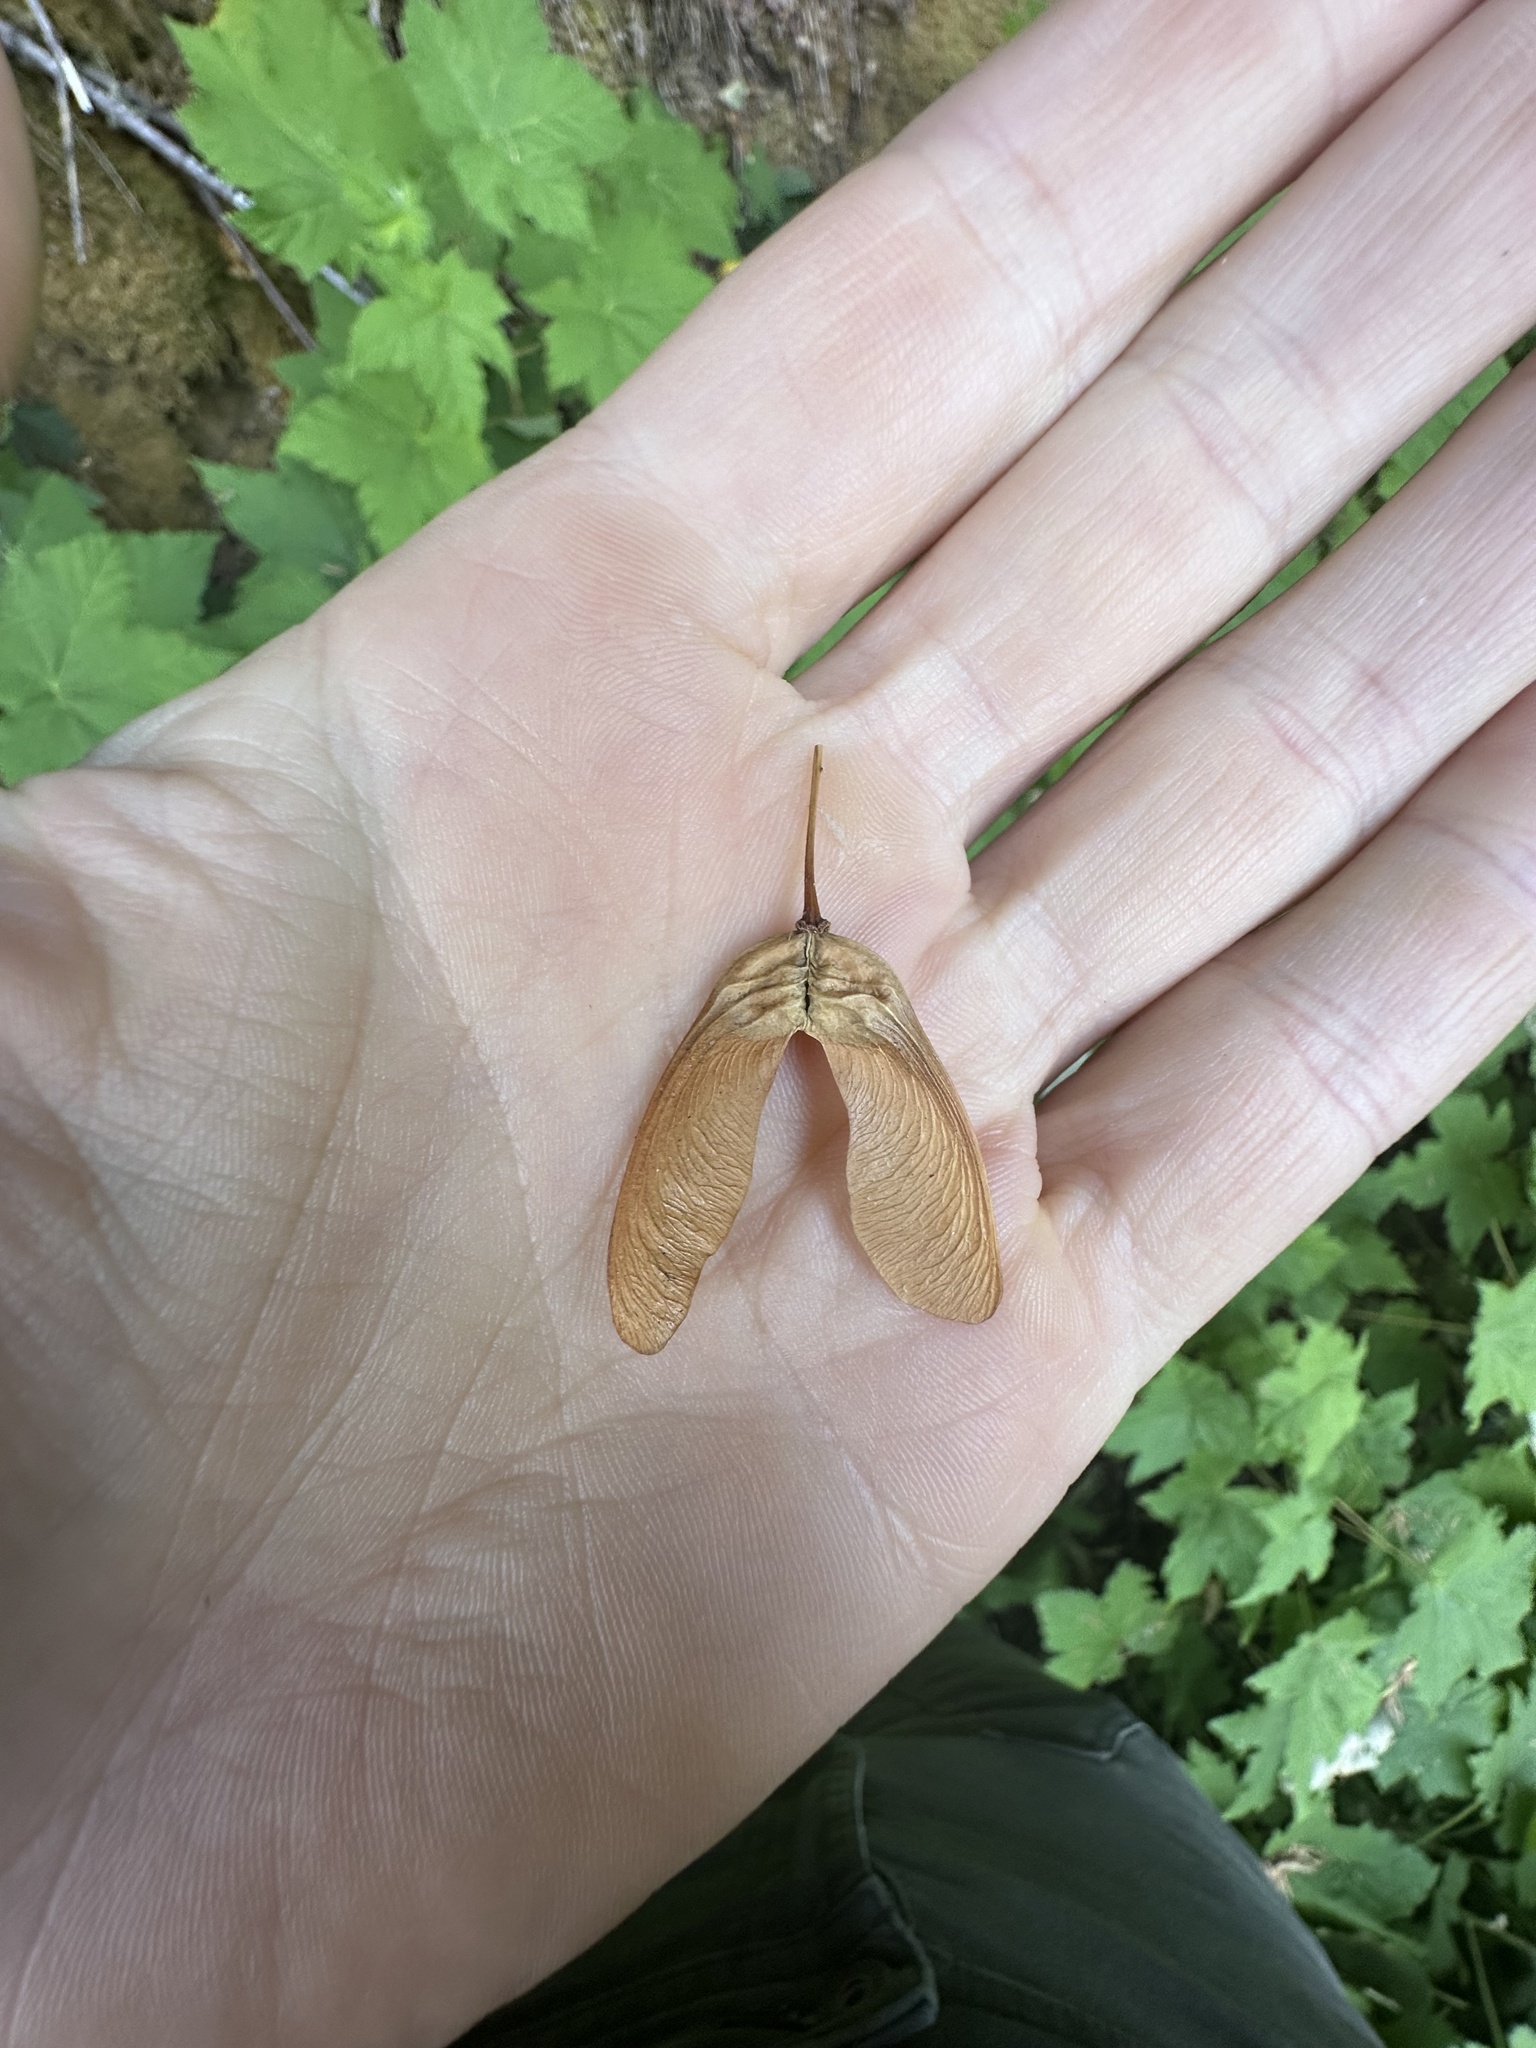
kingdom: Plantae
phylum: Tracheophyta
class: Magnoliopsida
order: Sapindales
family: Sapindaceae
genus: Acer
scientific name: Acer glabrum
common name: Rocky mountain maple
